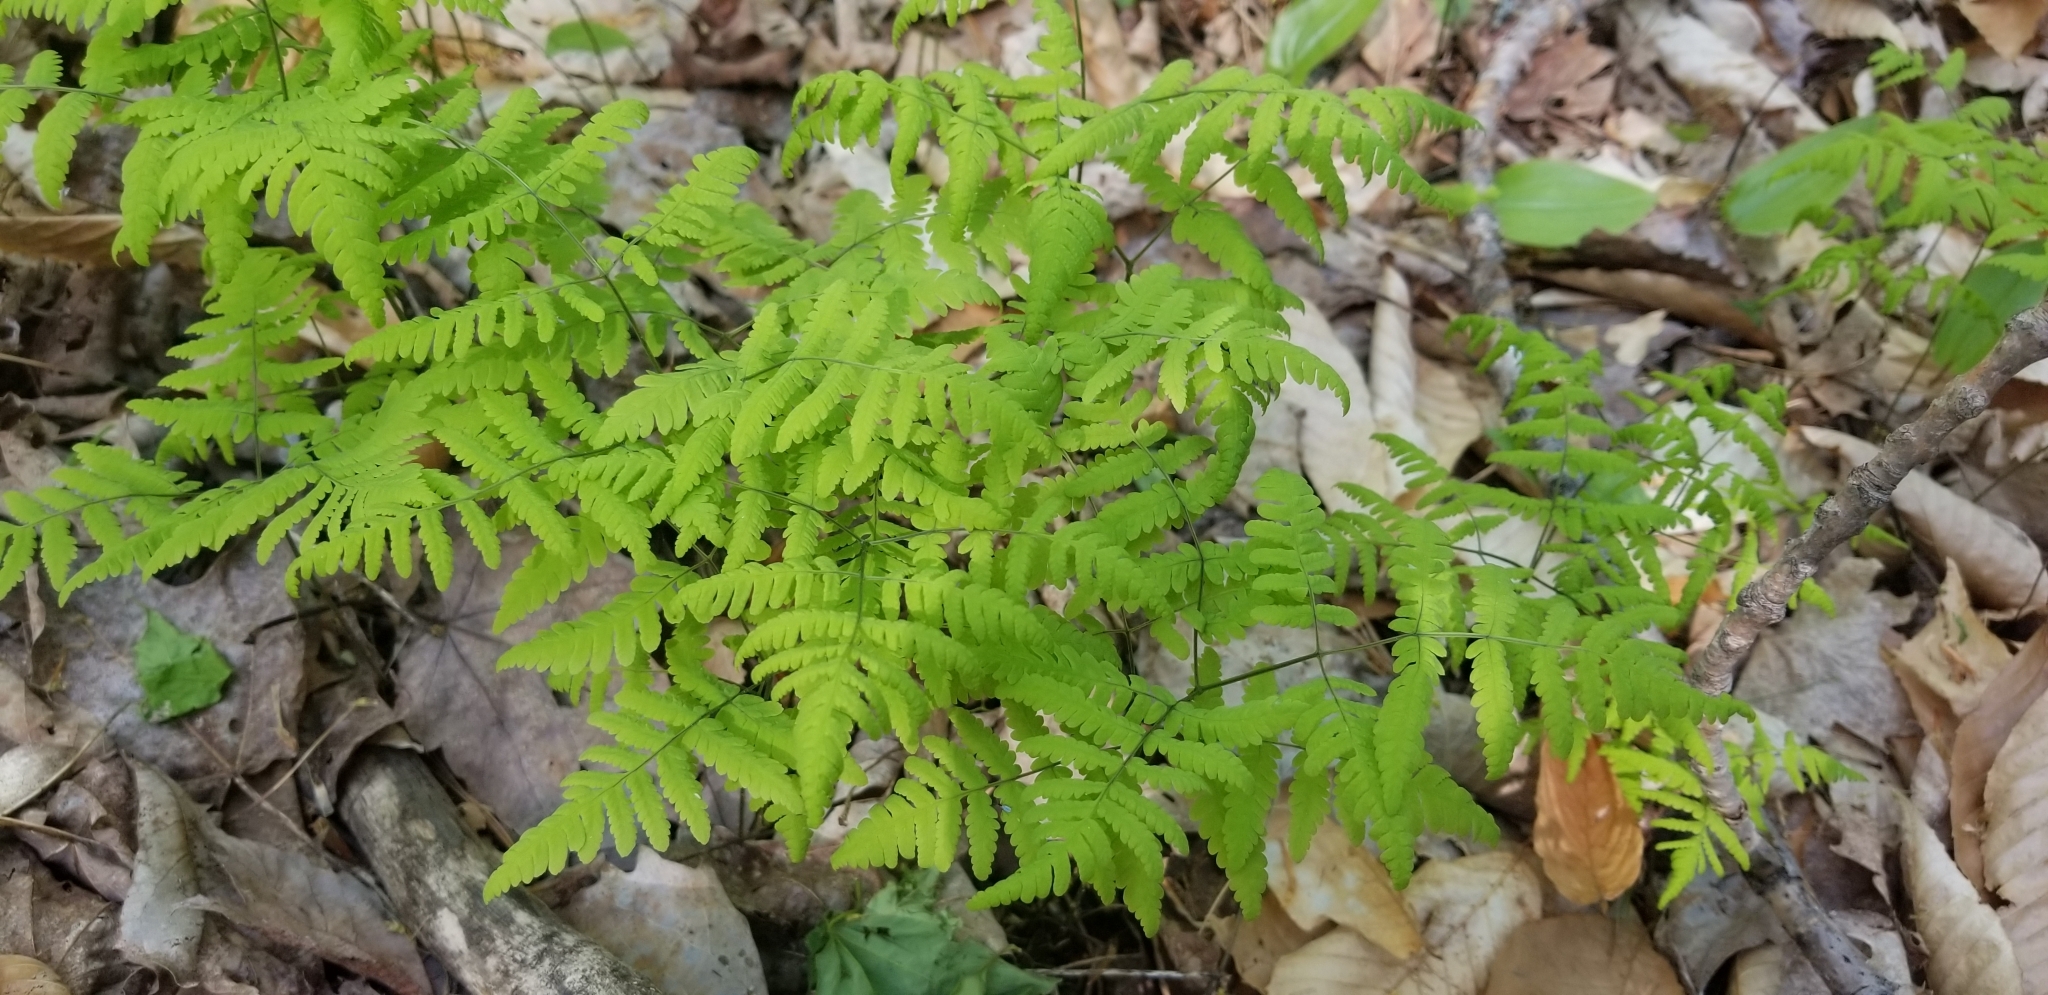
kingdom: Plantae
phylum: Tracheophyta
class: Polypodiopsida
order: Polypodiales
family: Cystopteridaceae
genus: Gymnocarpium
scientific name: Gymnocarpium dryopteris
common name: Oak fern
